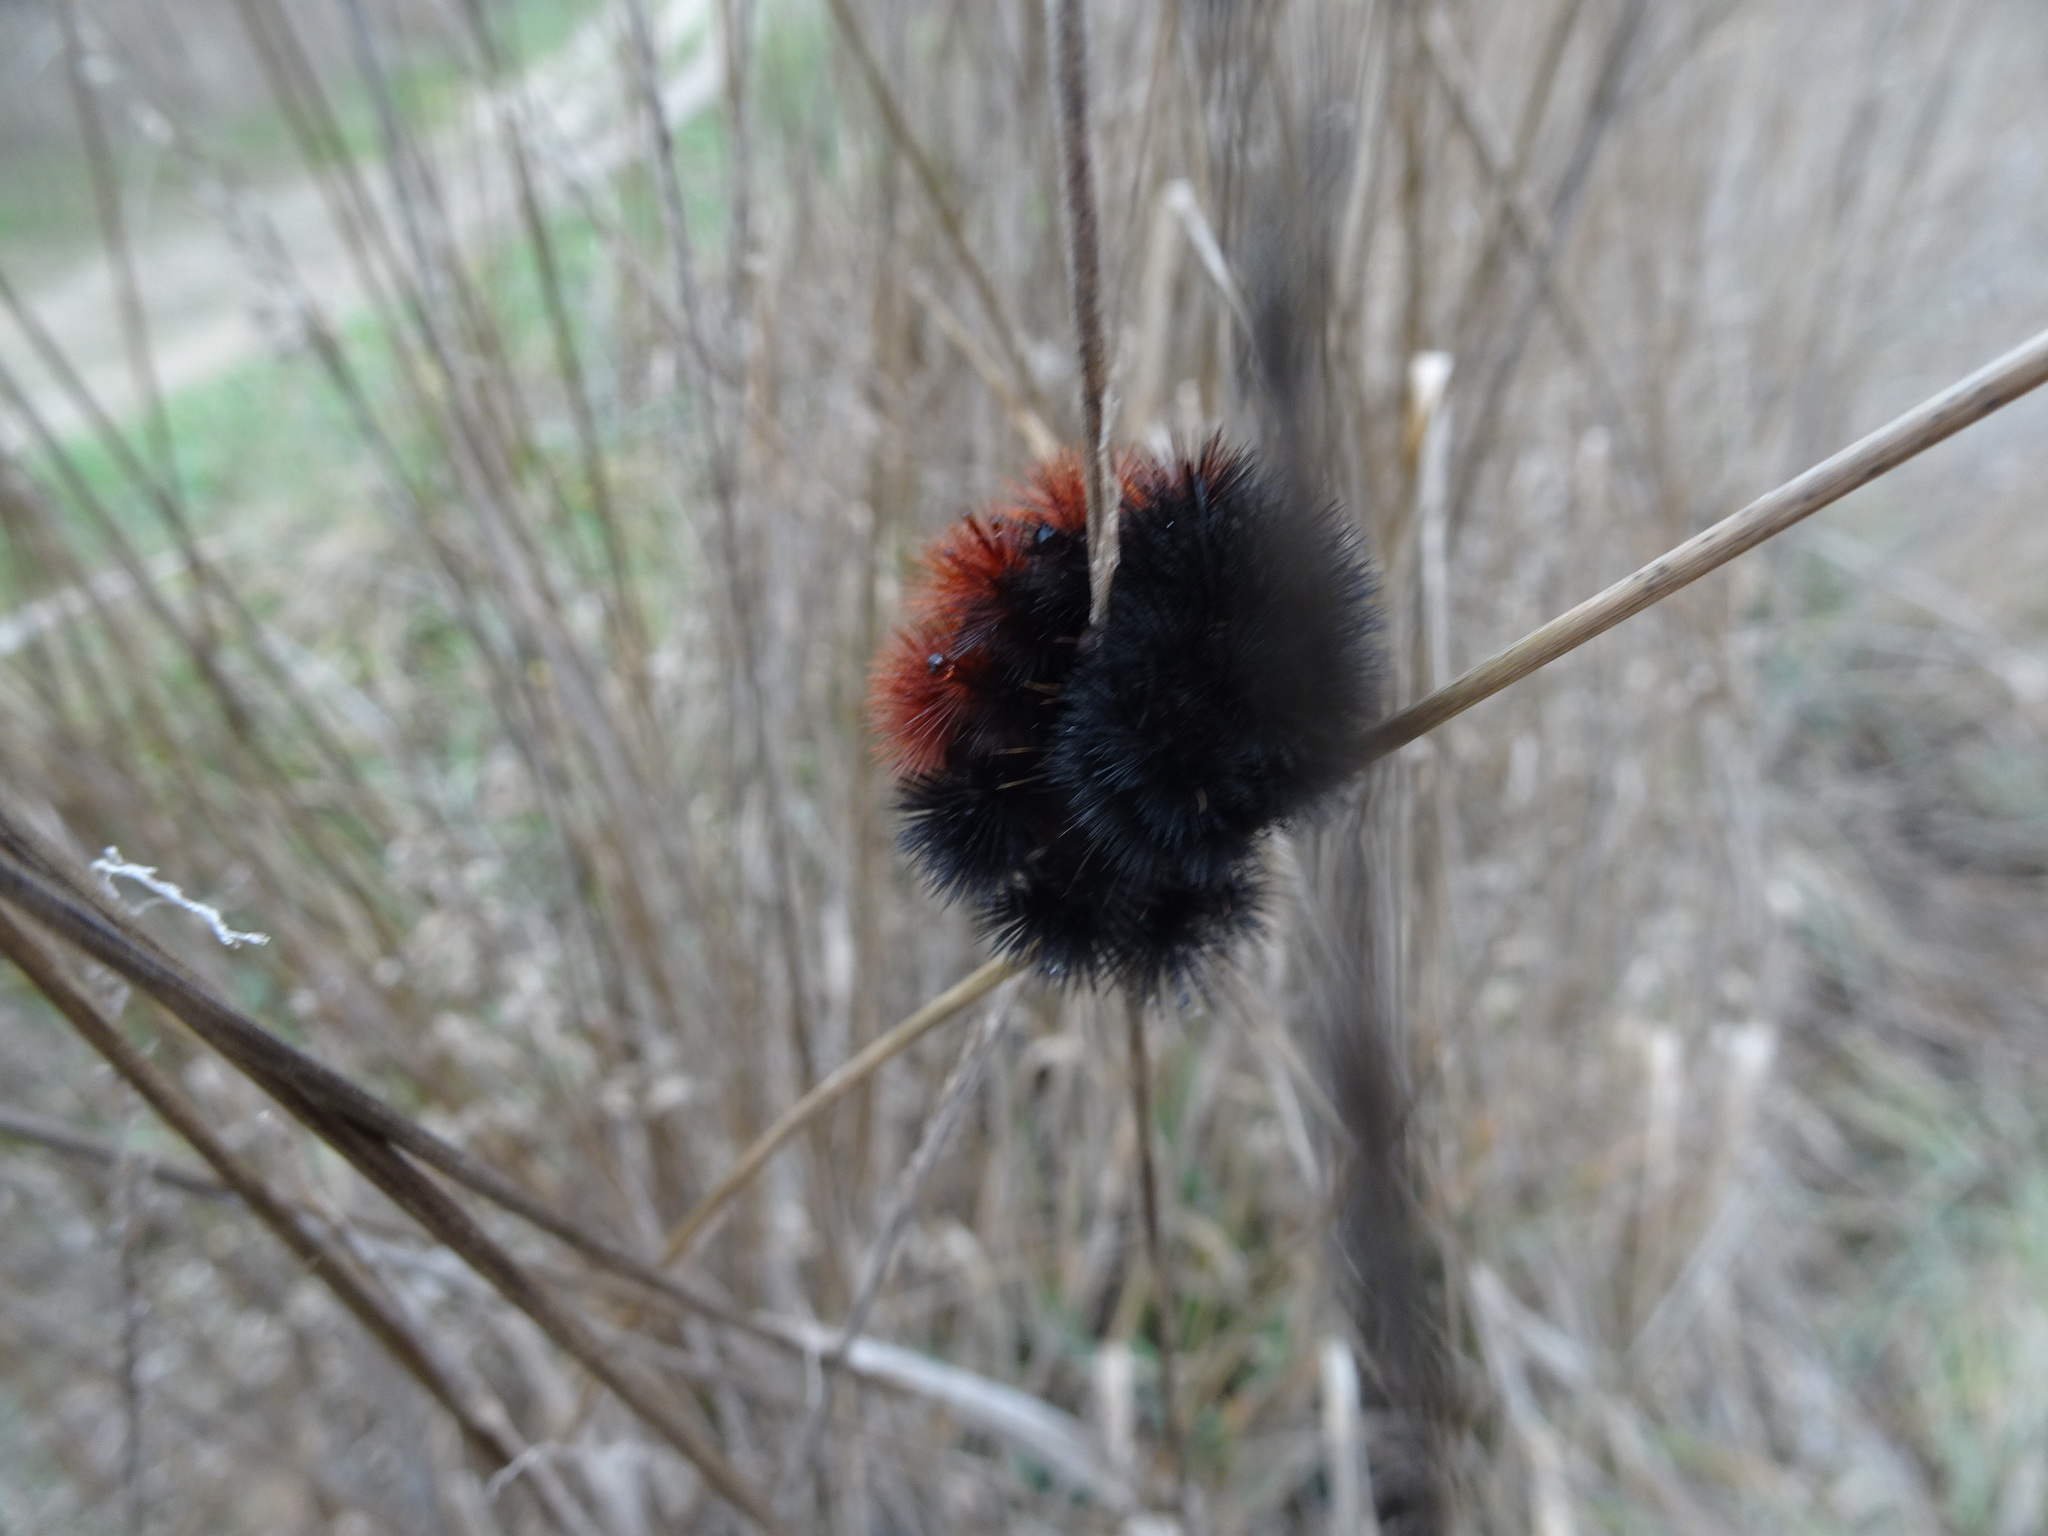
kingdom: Animalia
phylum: Arthropoda
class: Insecta
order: Lepidoptera
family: Erebidae
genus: Pyrrharctia
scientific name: Pyrrharctia isabella
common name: Isabella tiger moth
